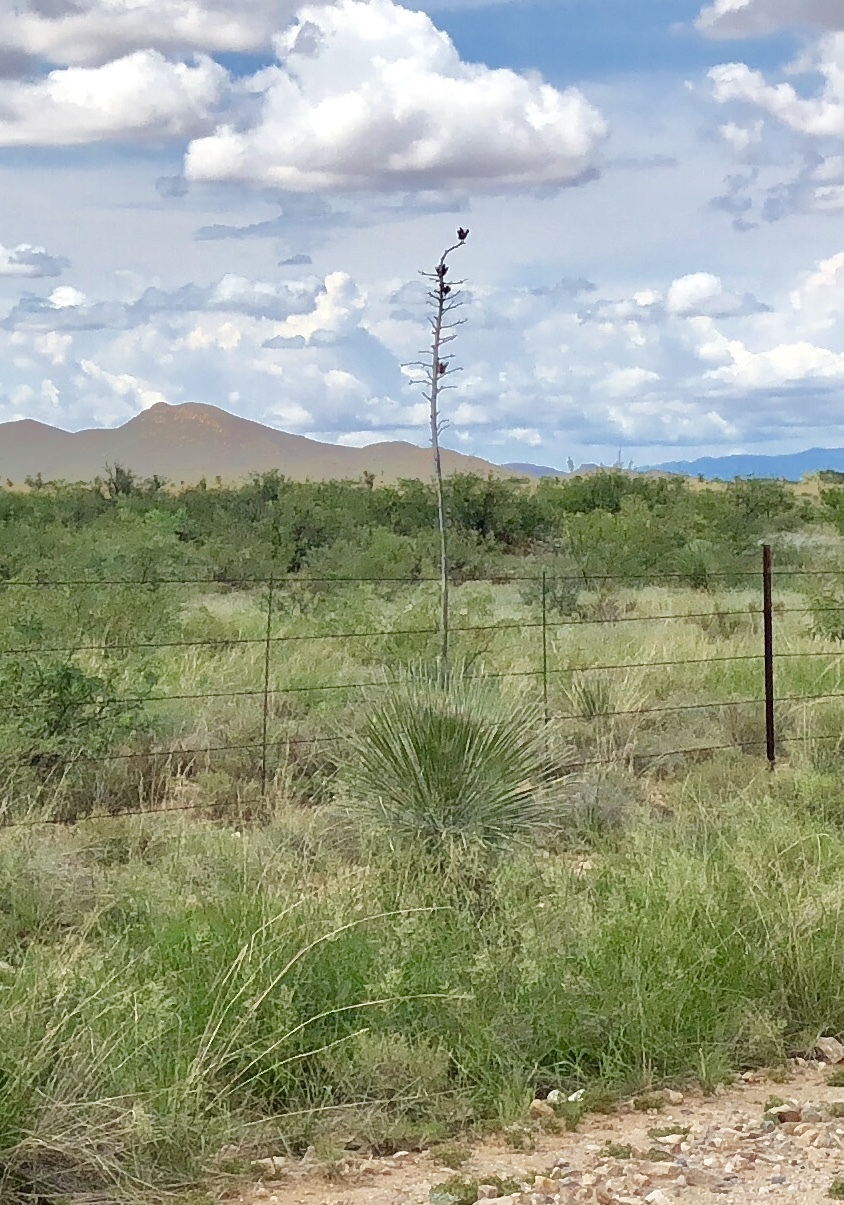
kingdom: Plantae
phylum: Tracheophyta
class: Liliopsida
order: Asparagales
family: Asparagaceae
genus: Yucca
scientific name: Yucca elata
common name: Palmella
